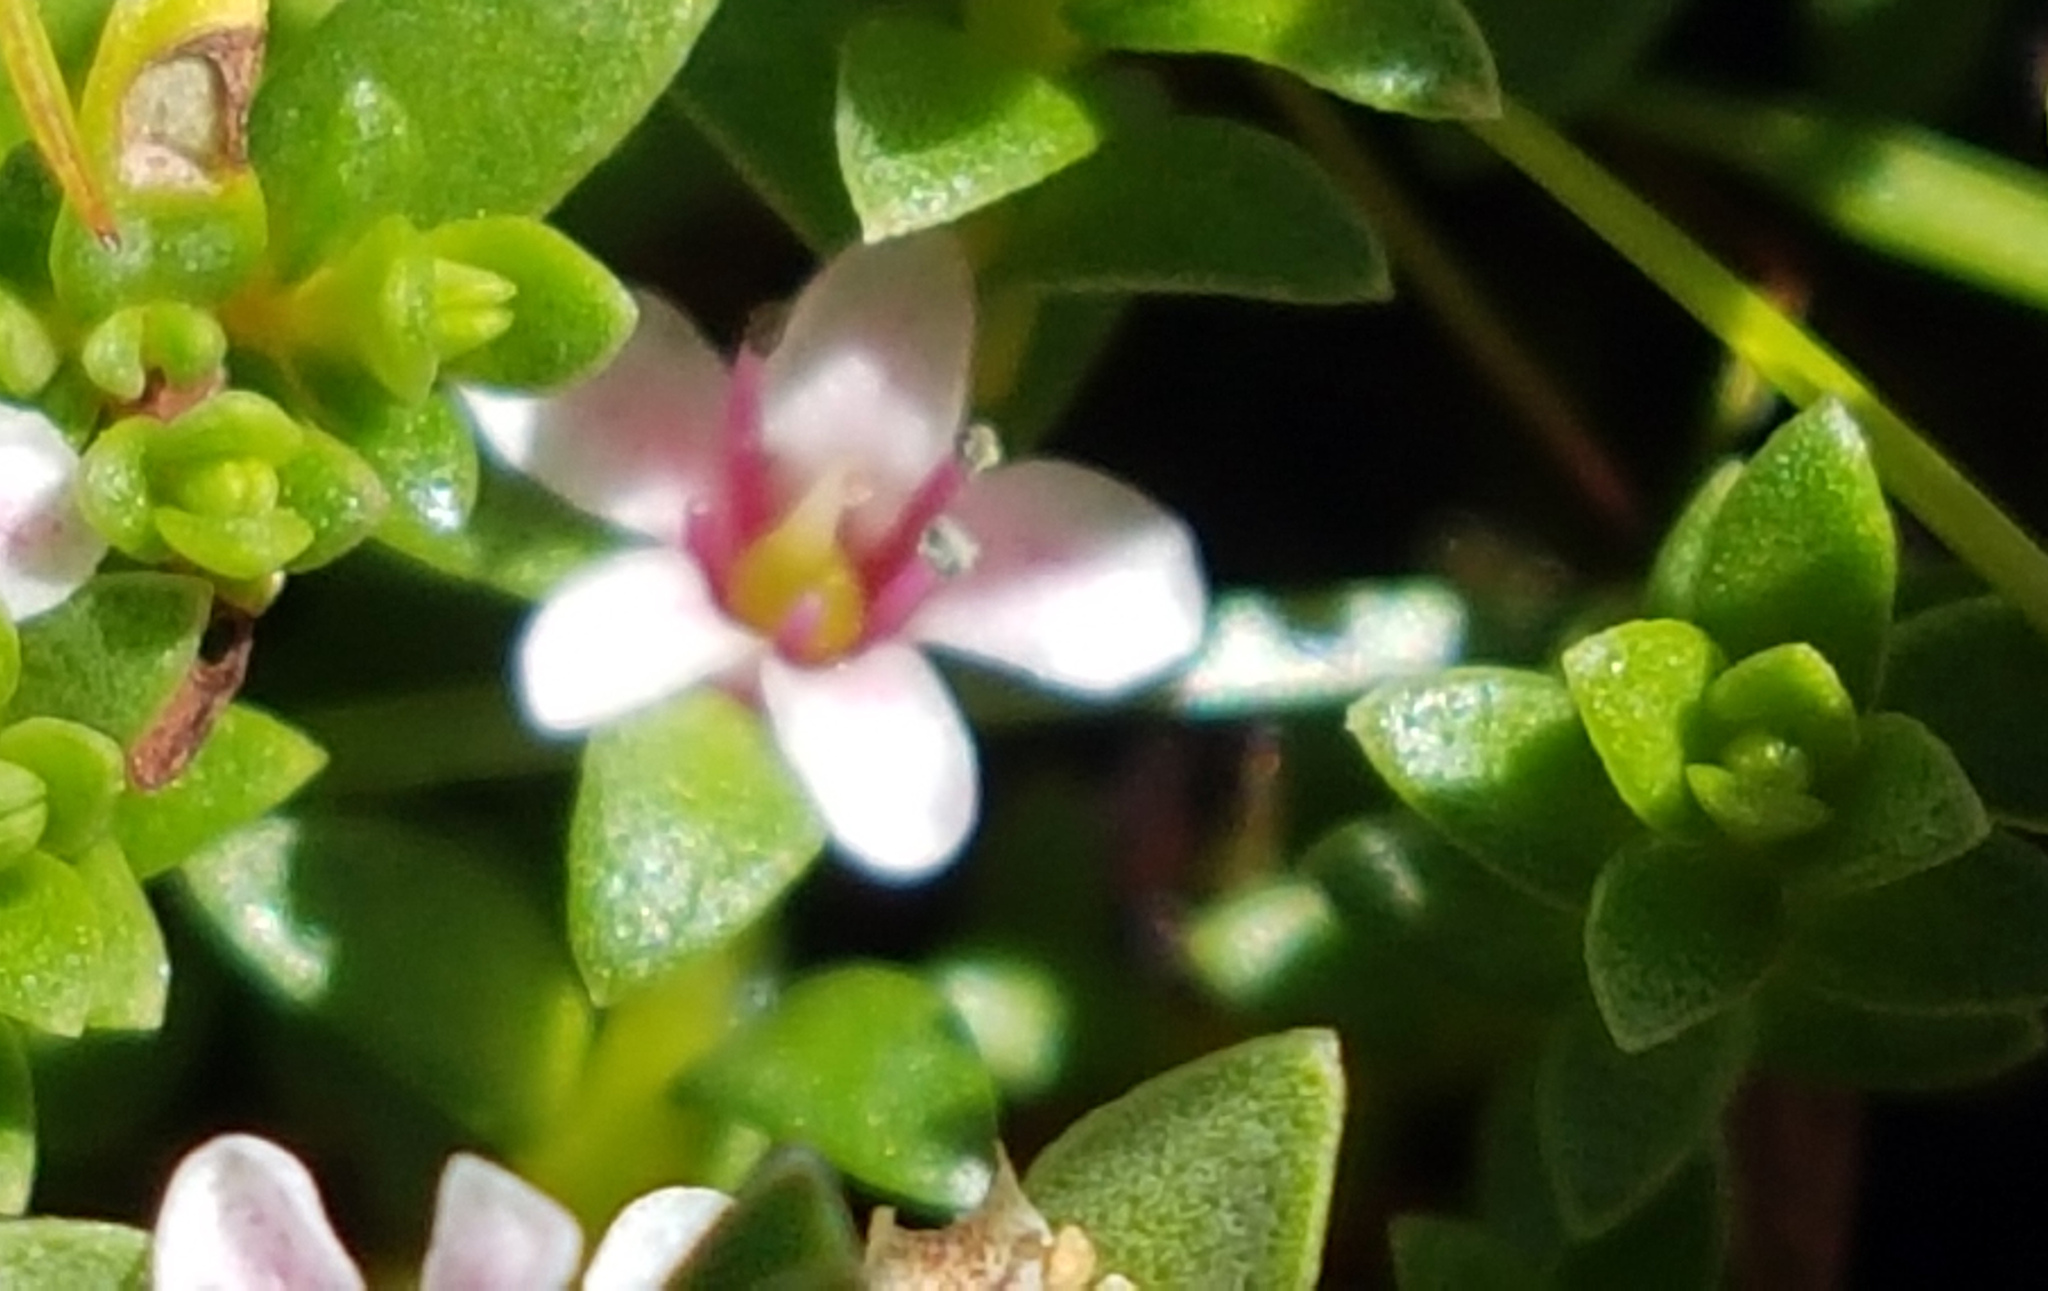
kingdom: Plantae
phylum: Tracheophyta
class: Magnoliopsida
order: Ericales
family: Primulaceae
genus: Lysimachia
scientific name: Lysimachia maritima
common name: Sea milkwort
